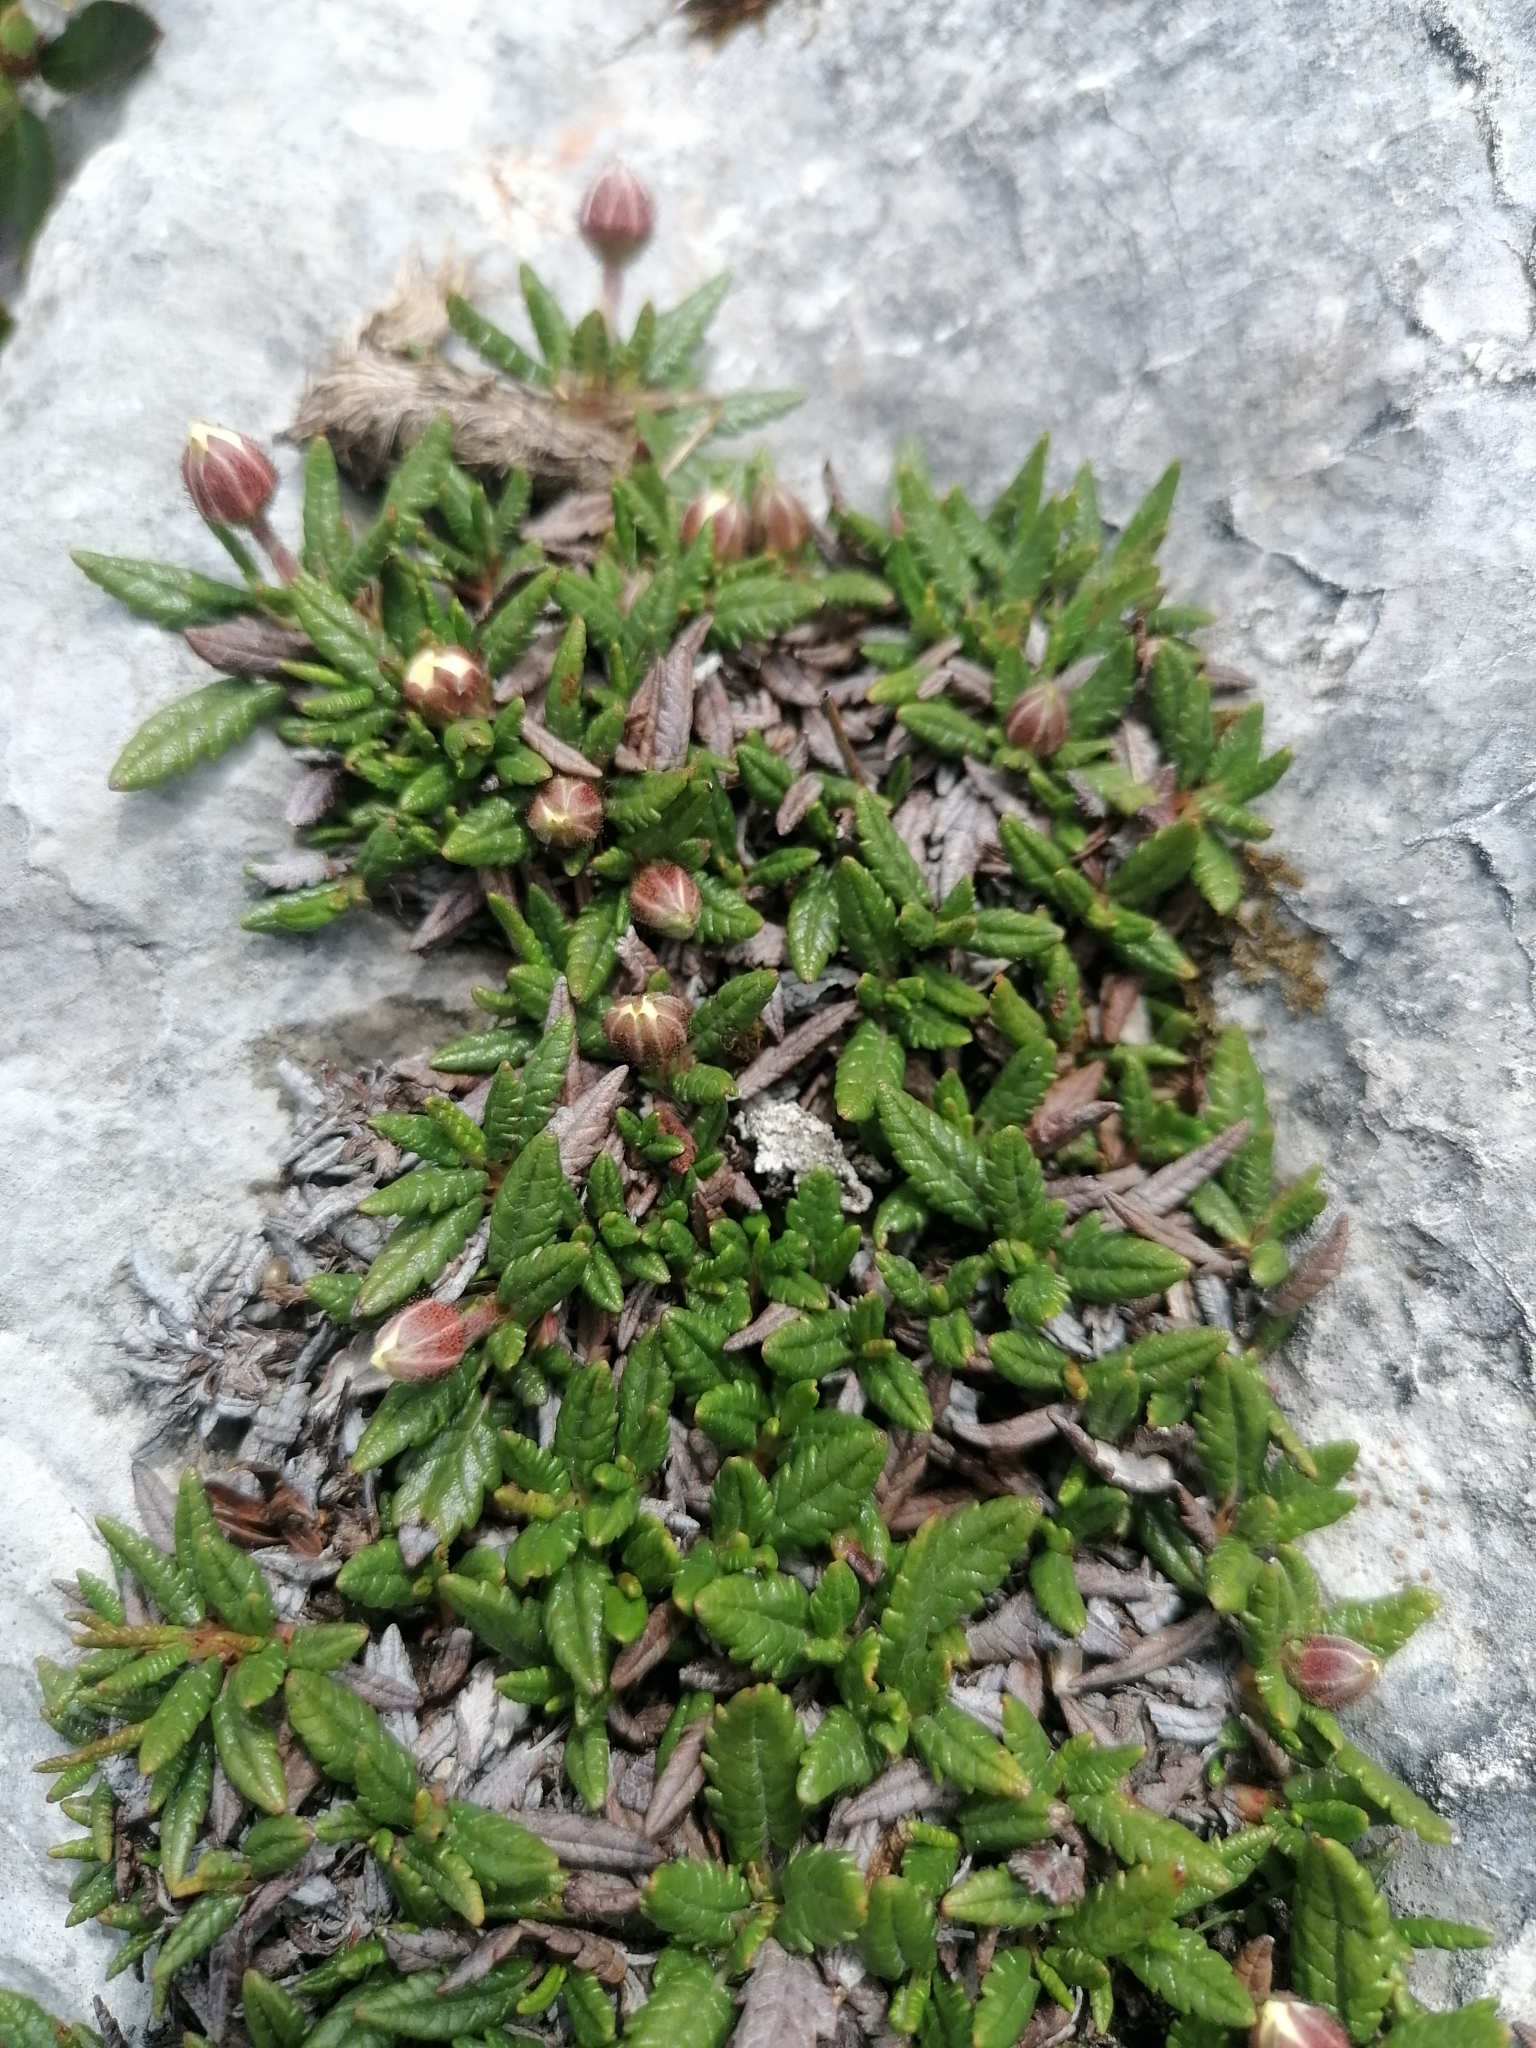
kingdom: Plantae
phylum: Tracheophyta
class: Magnoliopsida
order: Rosales
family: Rosaceae
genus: Dryas
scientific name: Dryas octopetala
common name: Eight-petal mountain-avens
